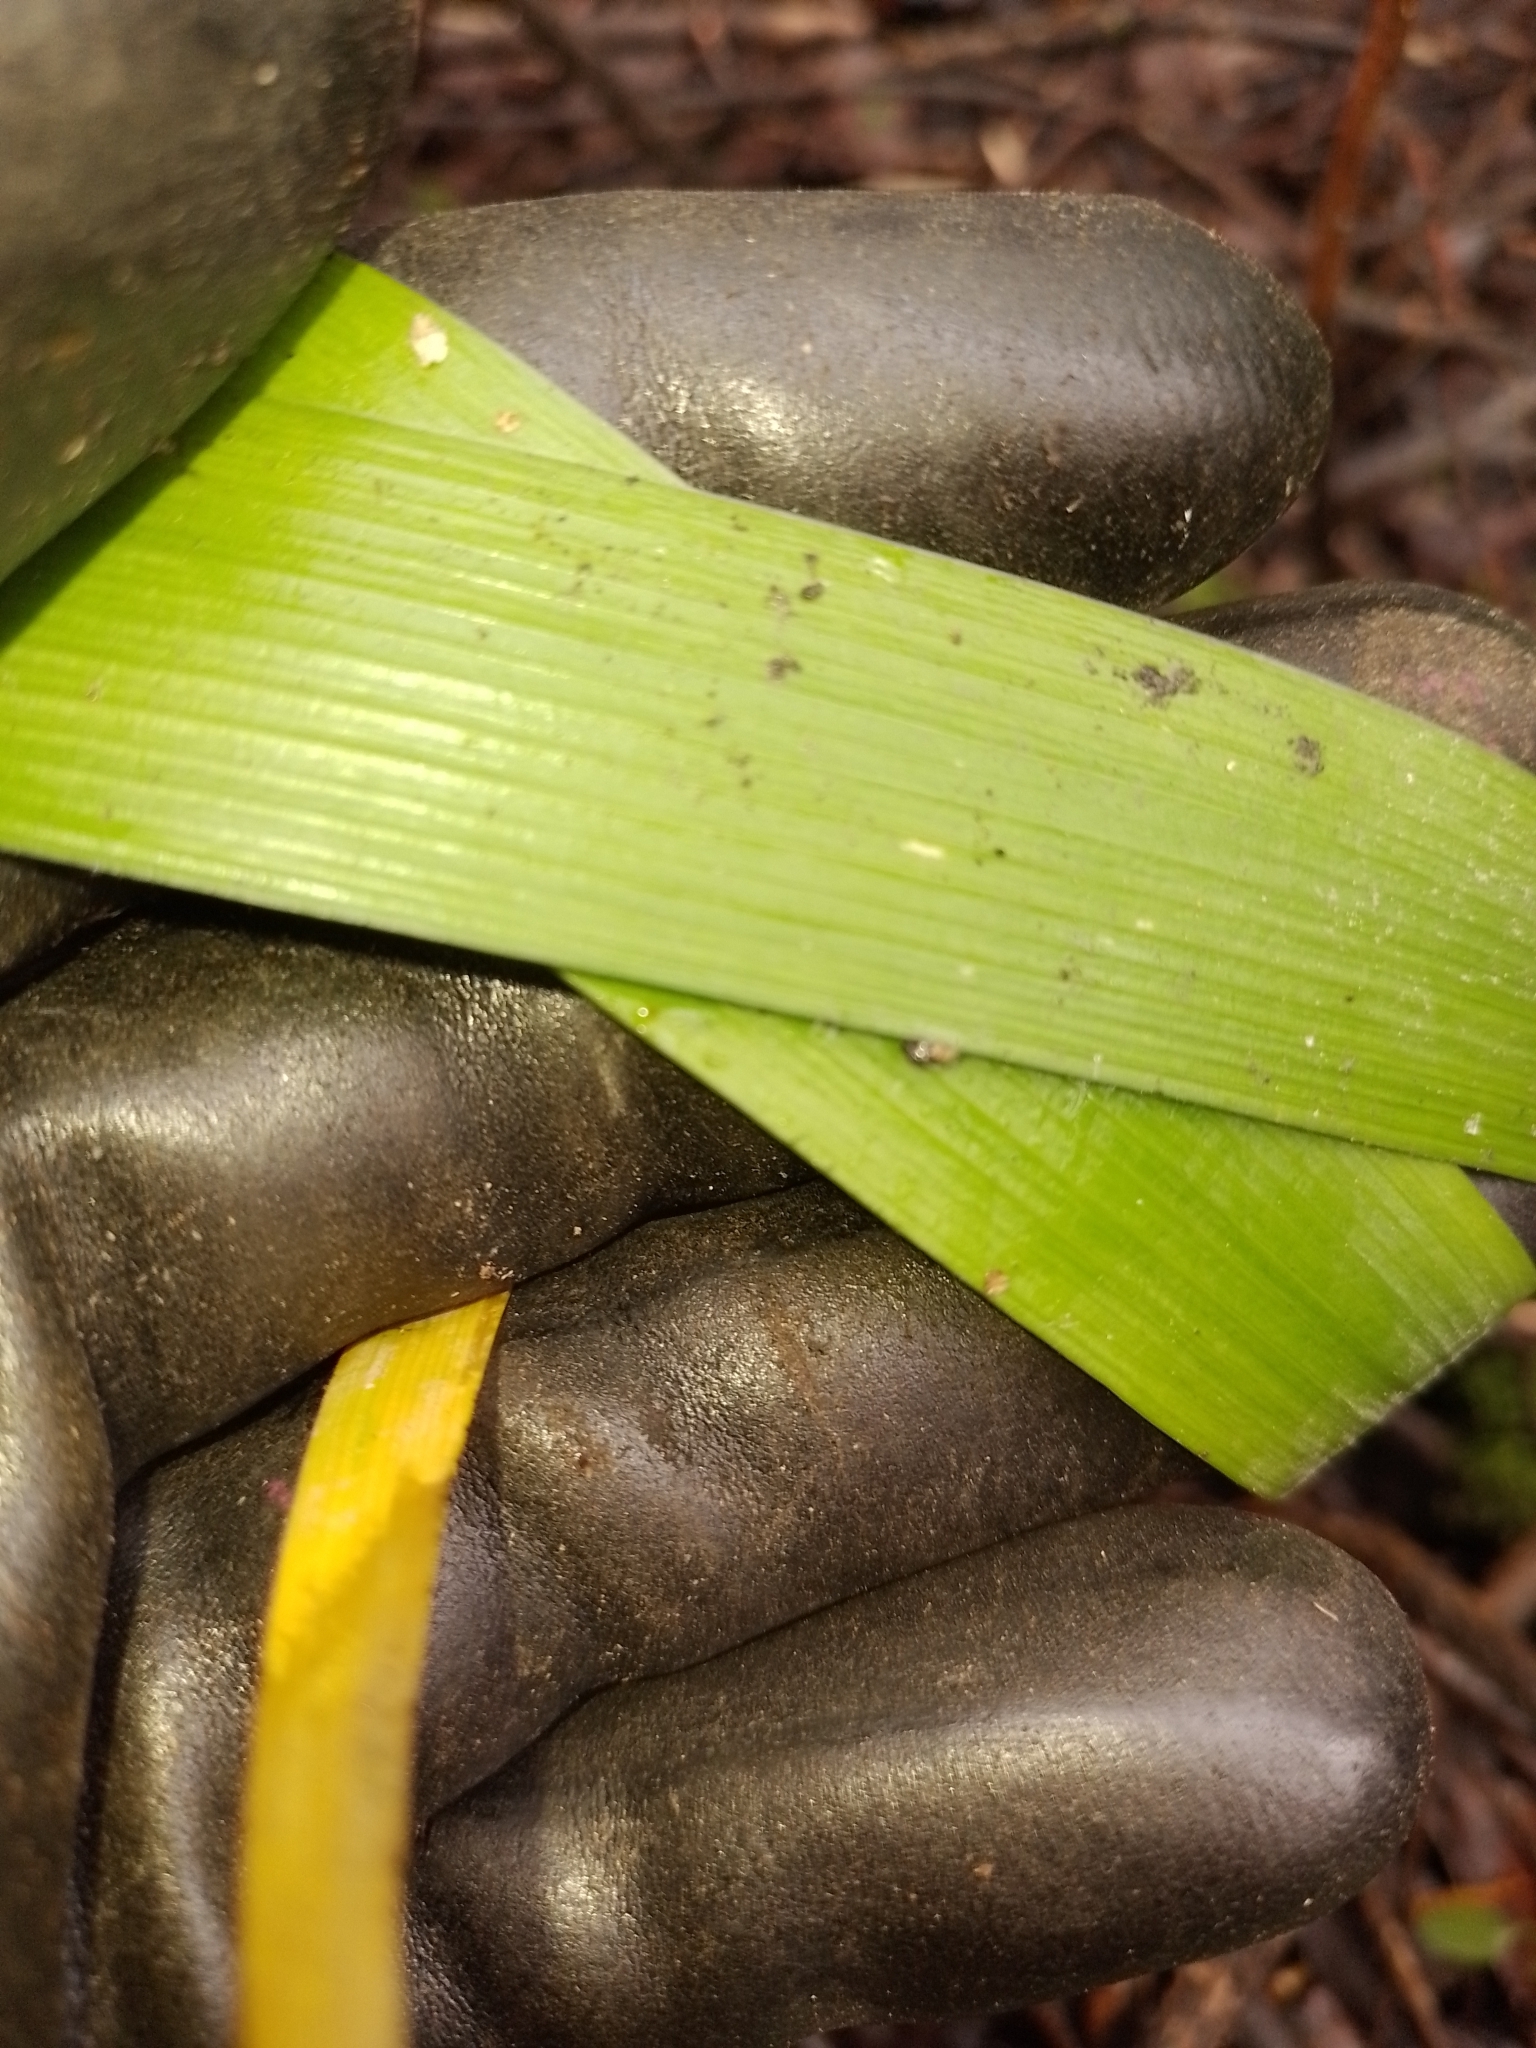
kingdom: Plantae
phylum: Tracheophyta
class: Liliopsida
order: Asparagales
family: Iridaceae
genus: Iris
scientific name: Iris foetidissima
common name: Stinking iris
